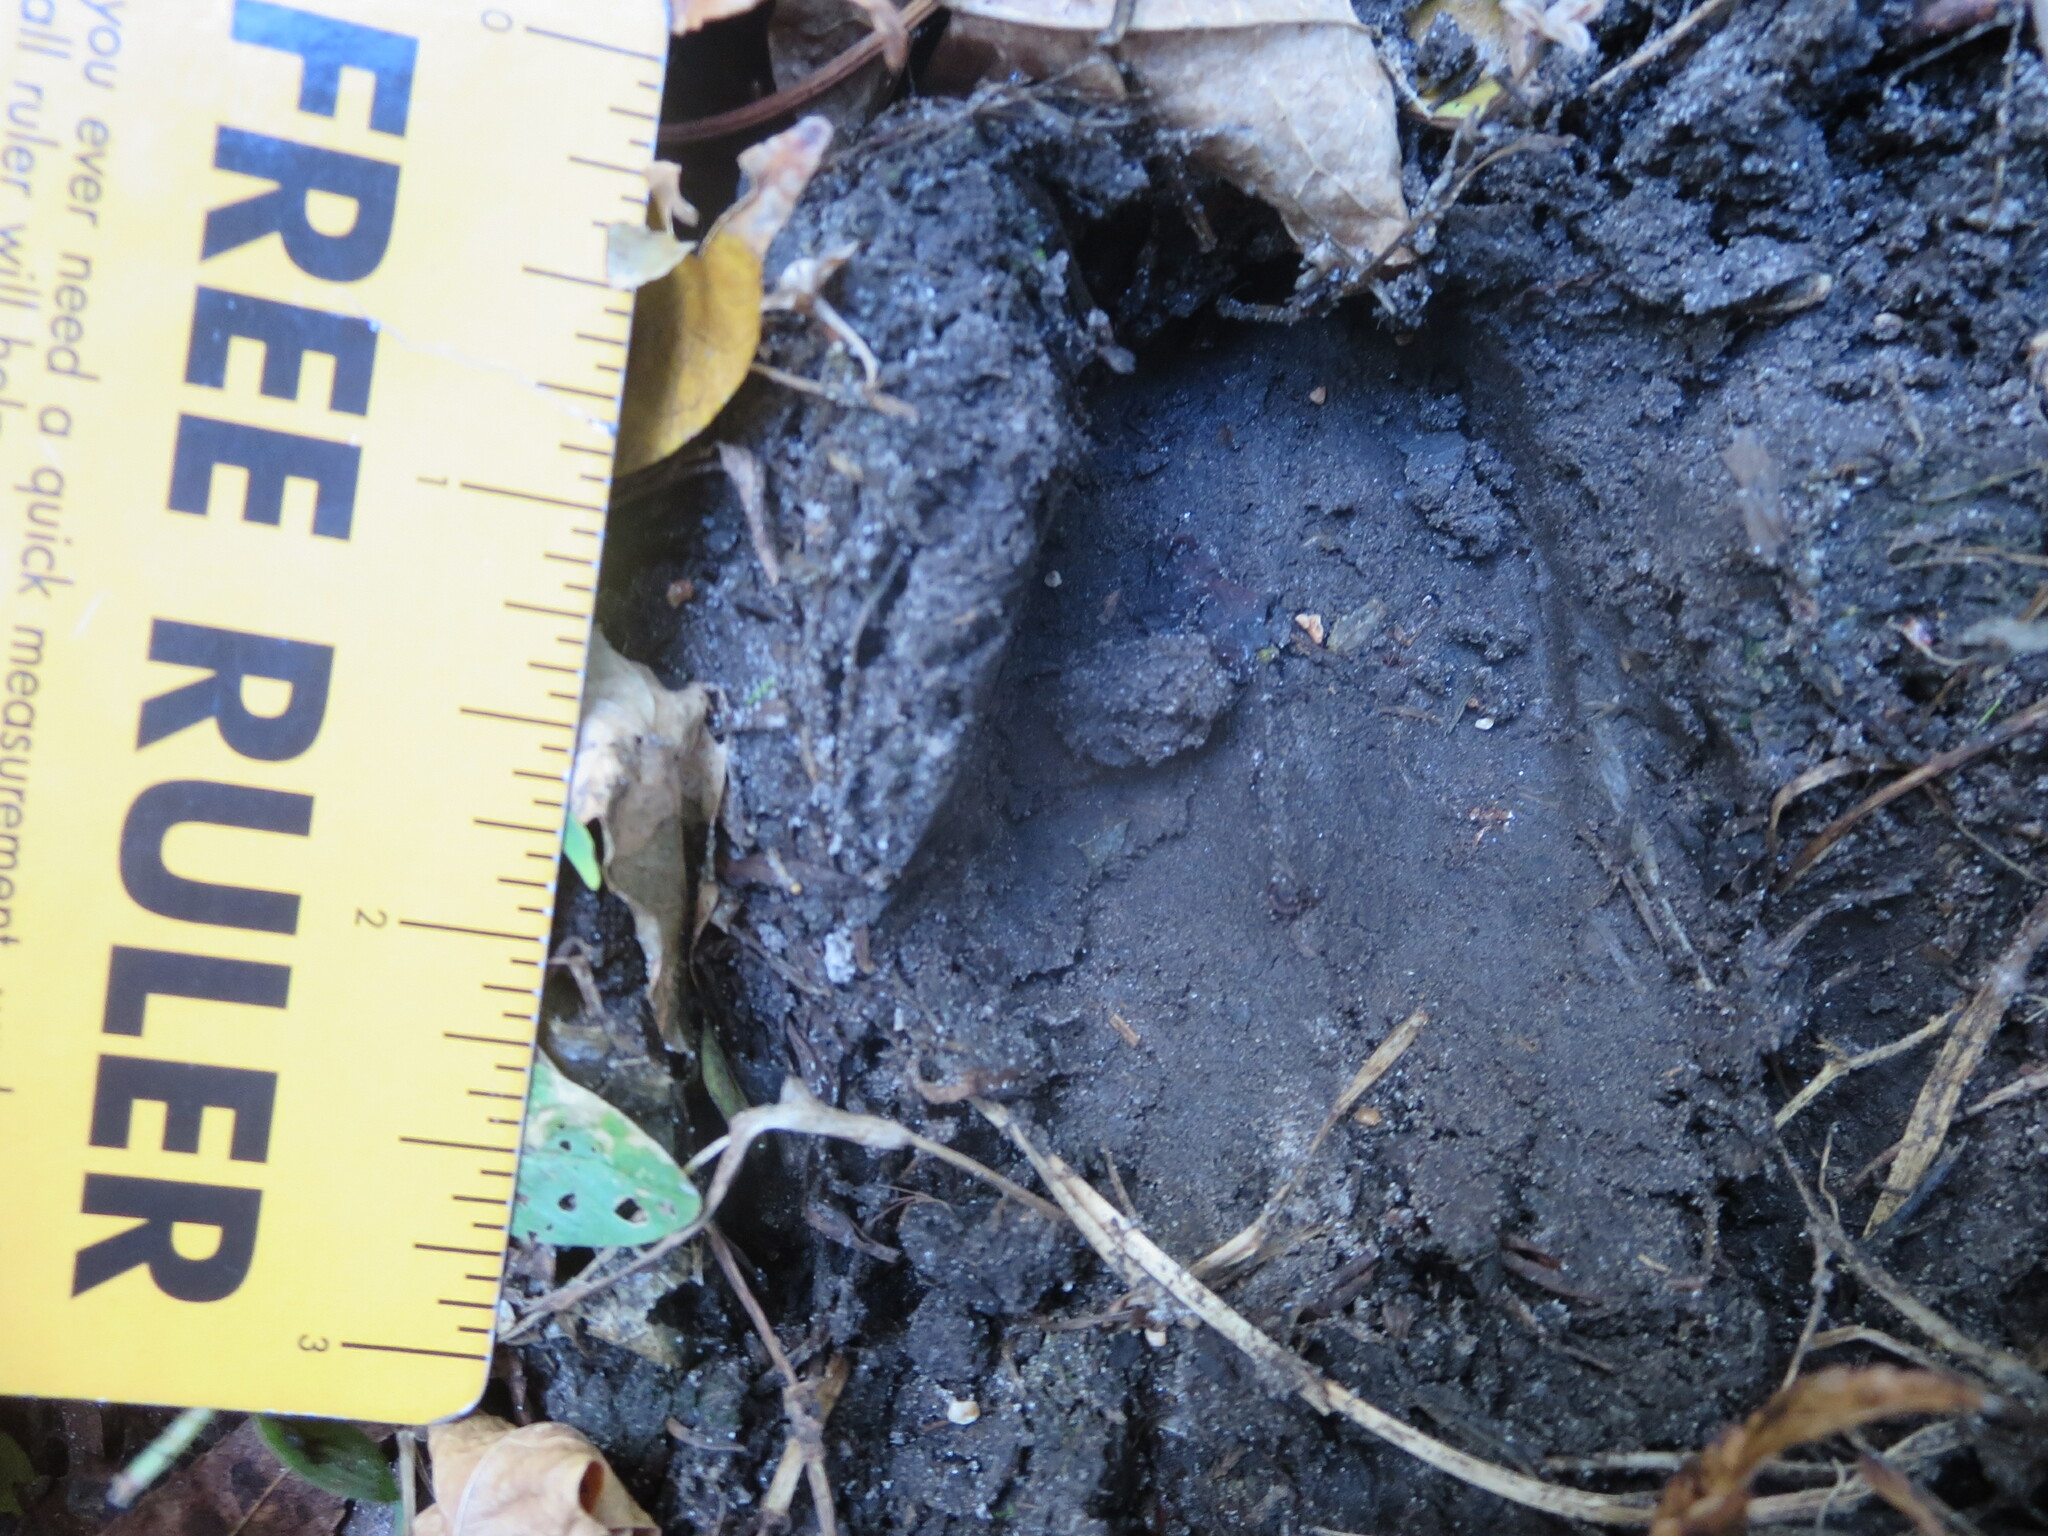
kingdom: Animalia
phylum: Chordata
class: Mammalia
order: Artiodactyla
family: Cervidae
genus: Odocoileus
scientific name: Odocoileus virginianus
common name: White-tailed deer
